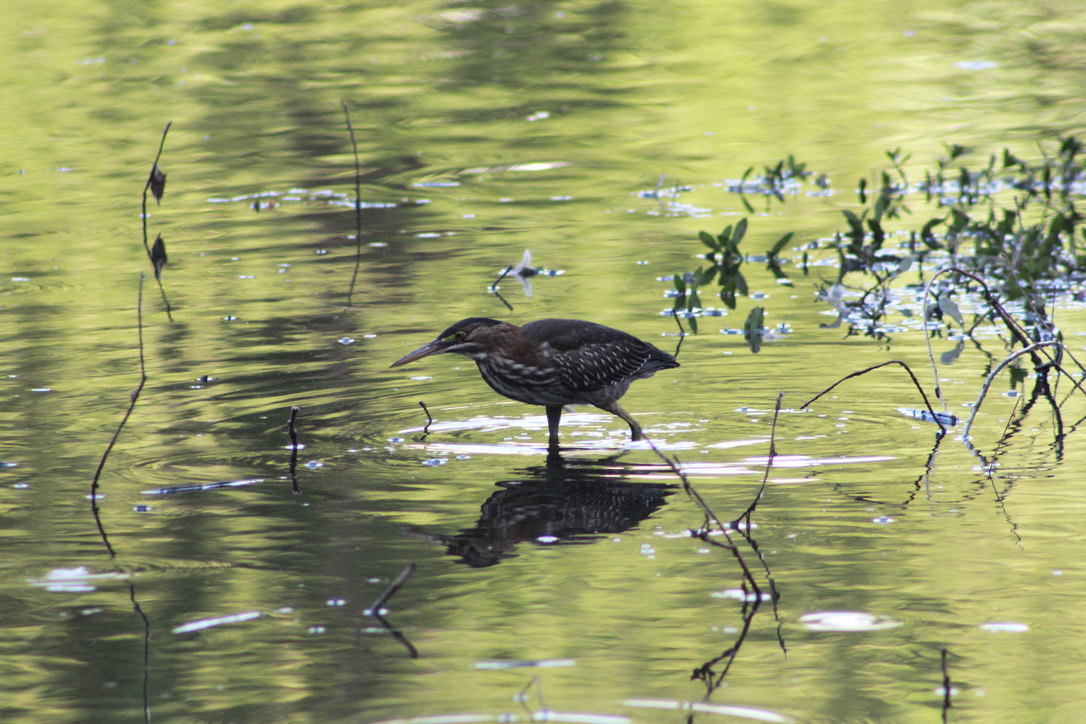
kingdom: Animalia
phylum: Chordata
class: Aves
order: Pelecaniformes
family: Ardeidae
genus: Butorides
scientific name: Butorides virescens
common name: Green heron
